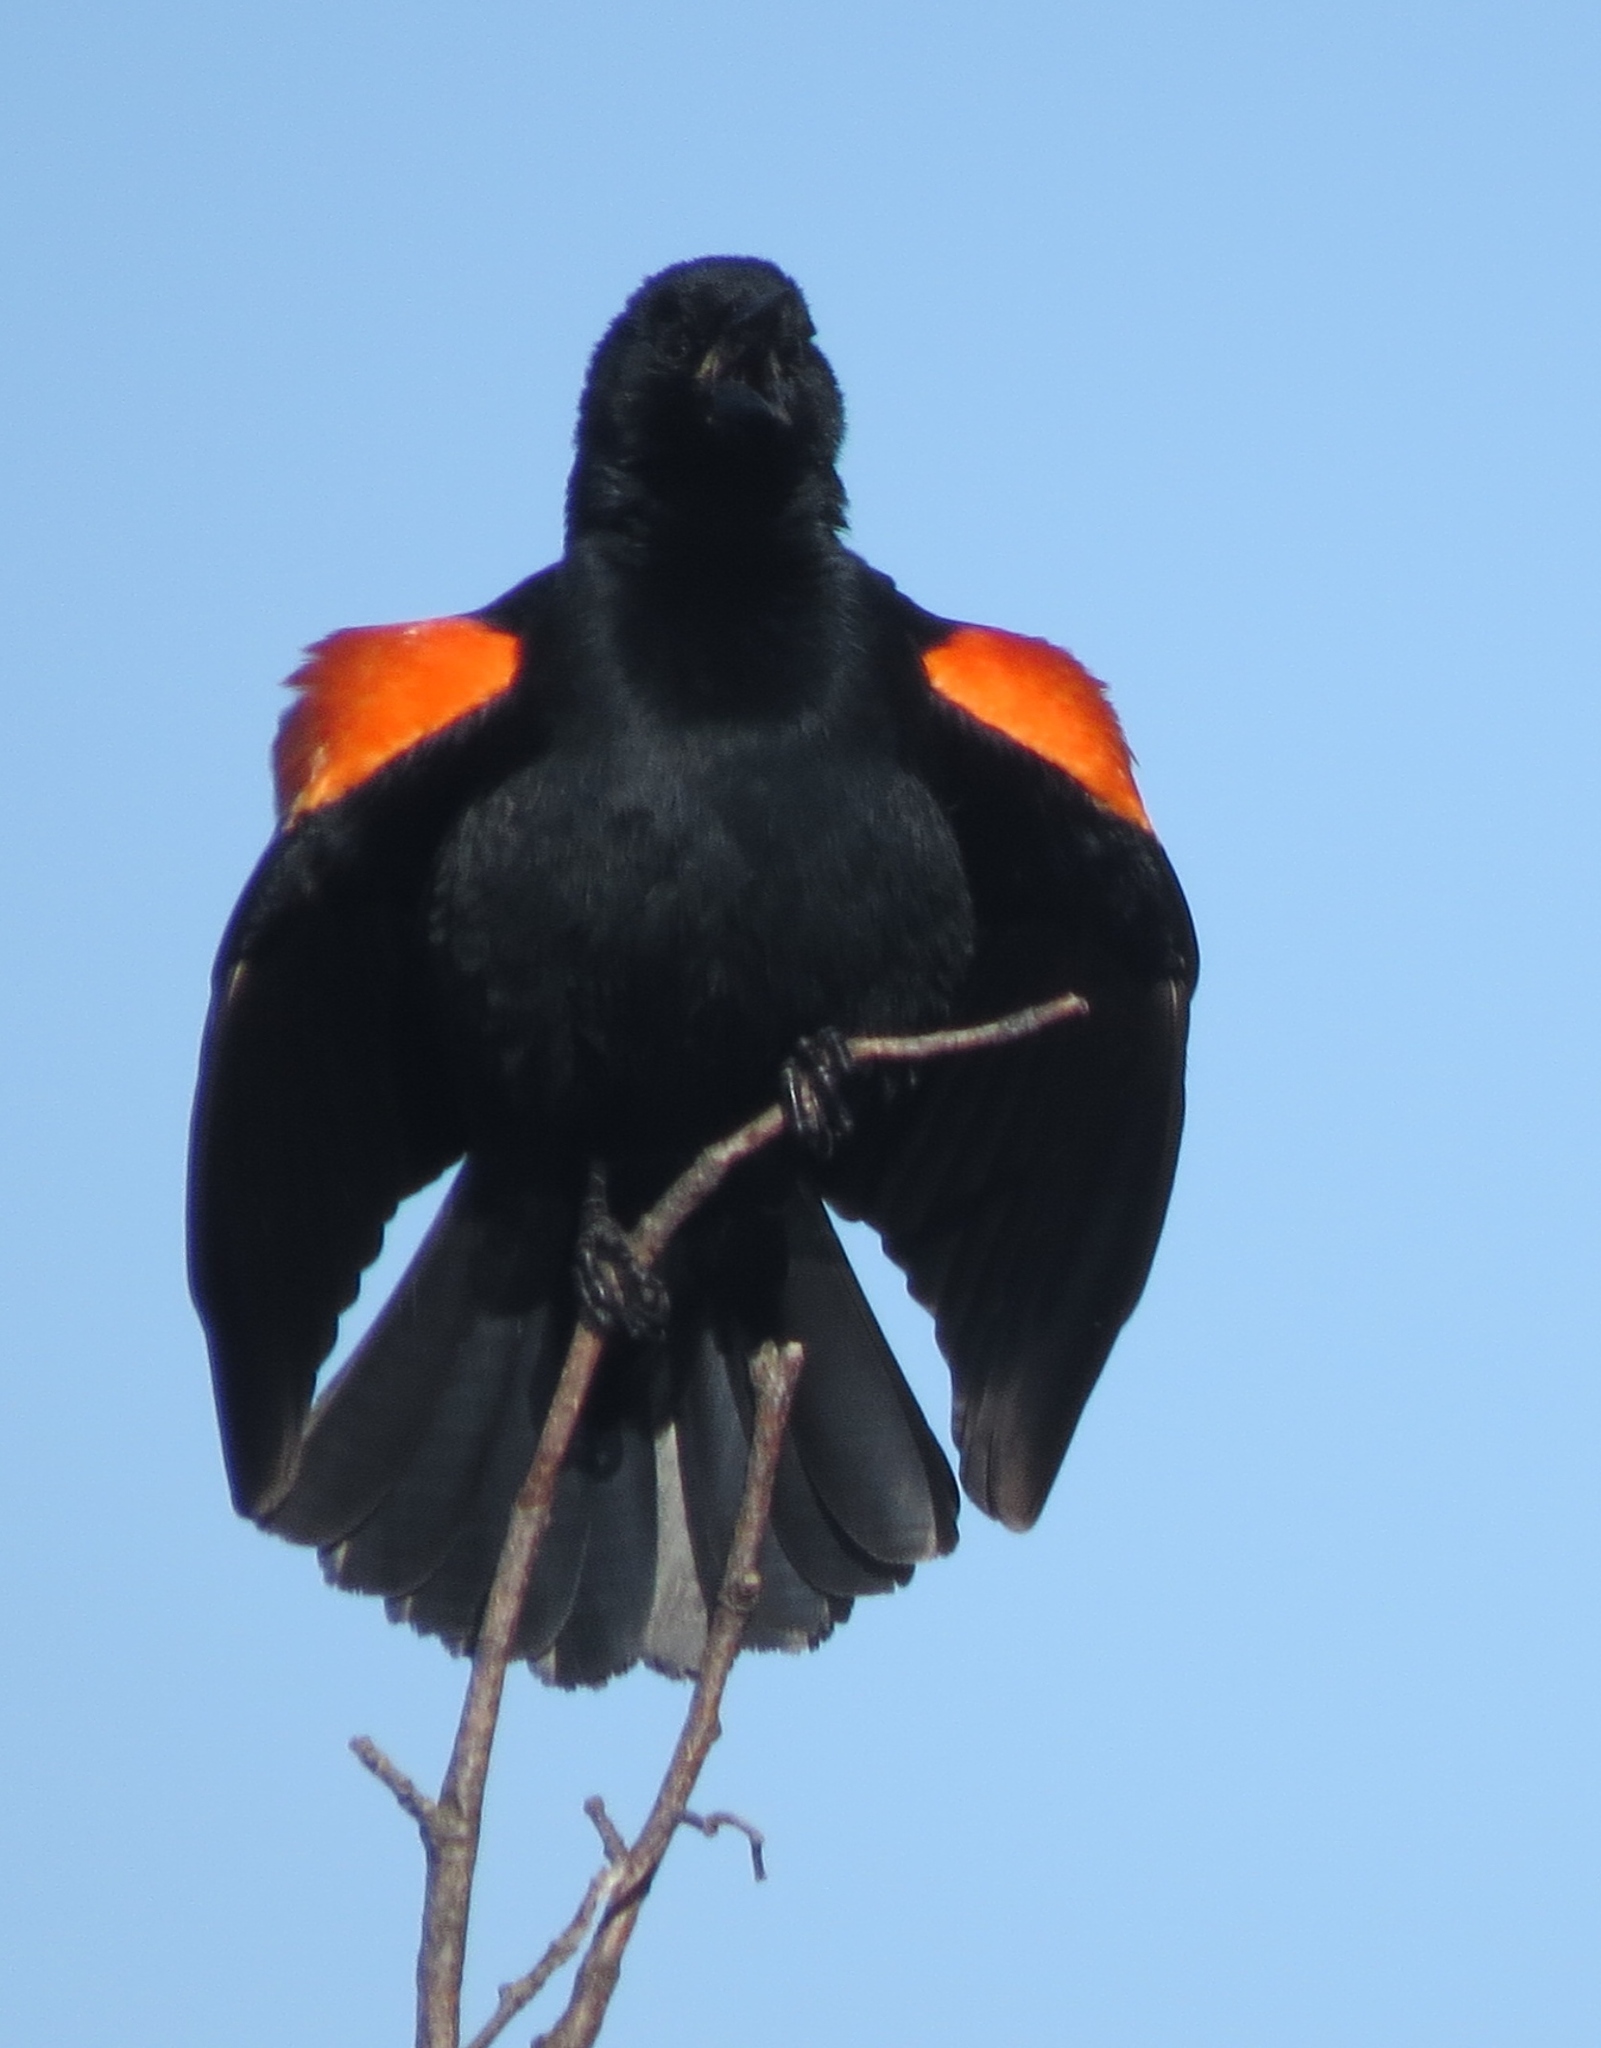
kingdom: Animalia
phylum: Chordata
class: Aves
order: Passeriformes
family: Icteridae
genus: Agelaius
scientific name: Agelaius phoeniceus
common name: Red-winged blackbird
